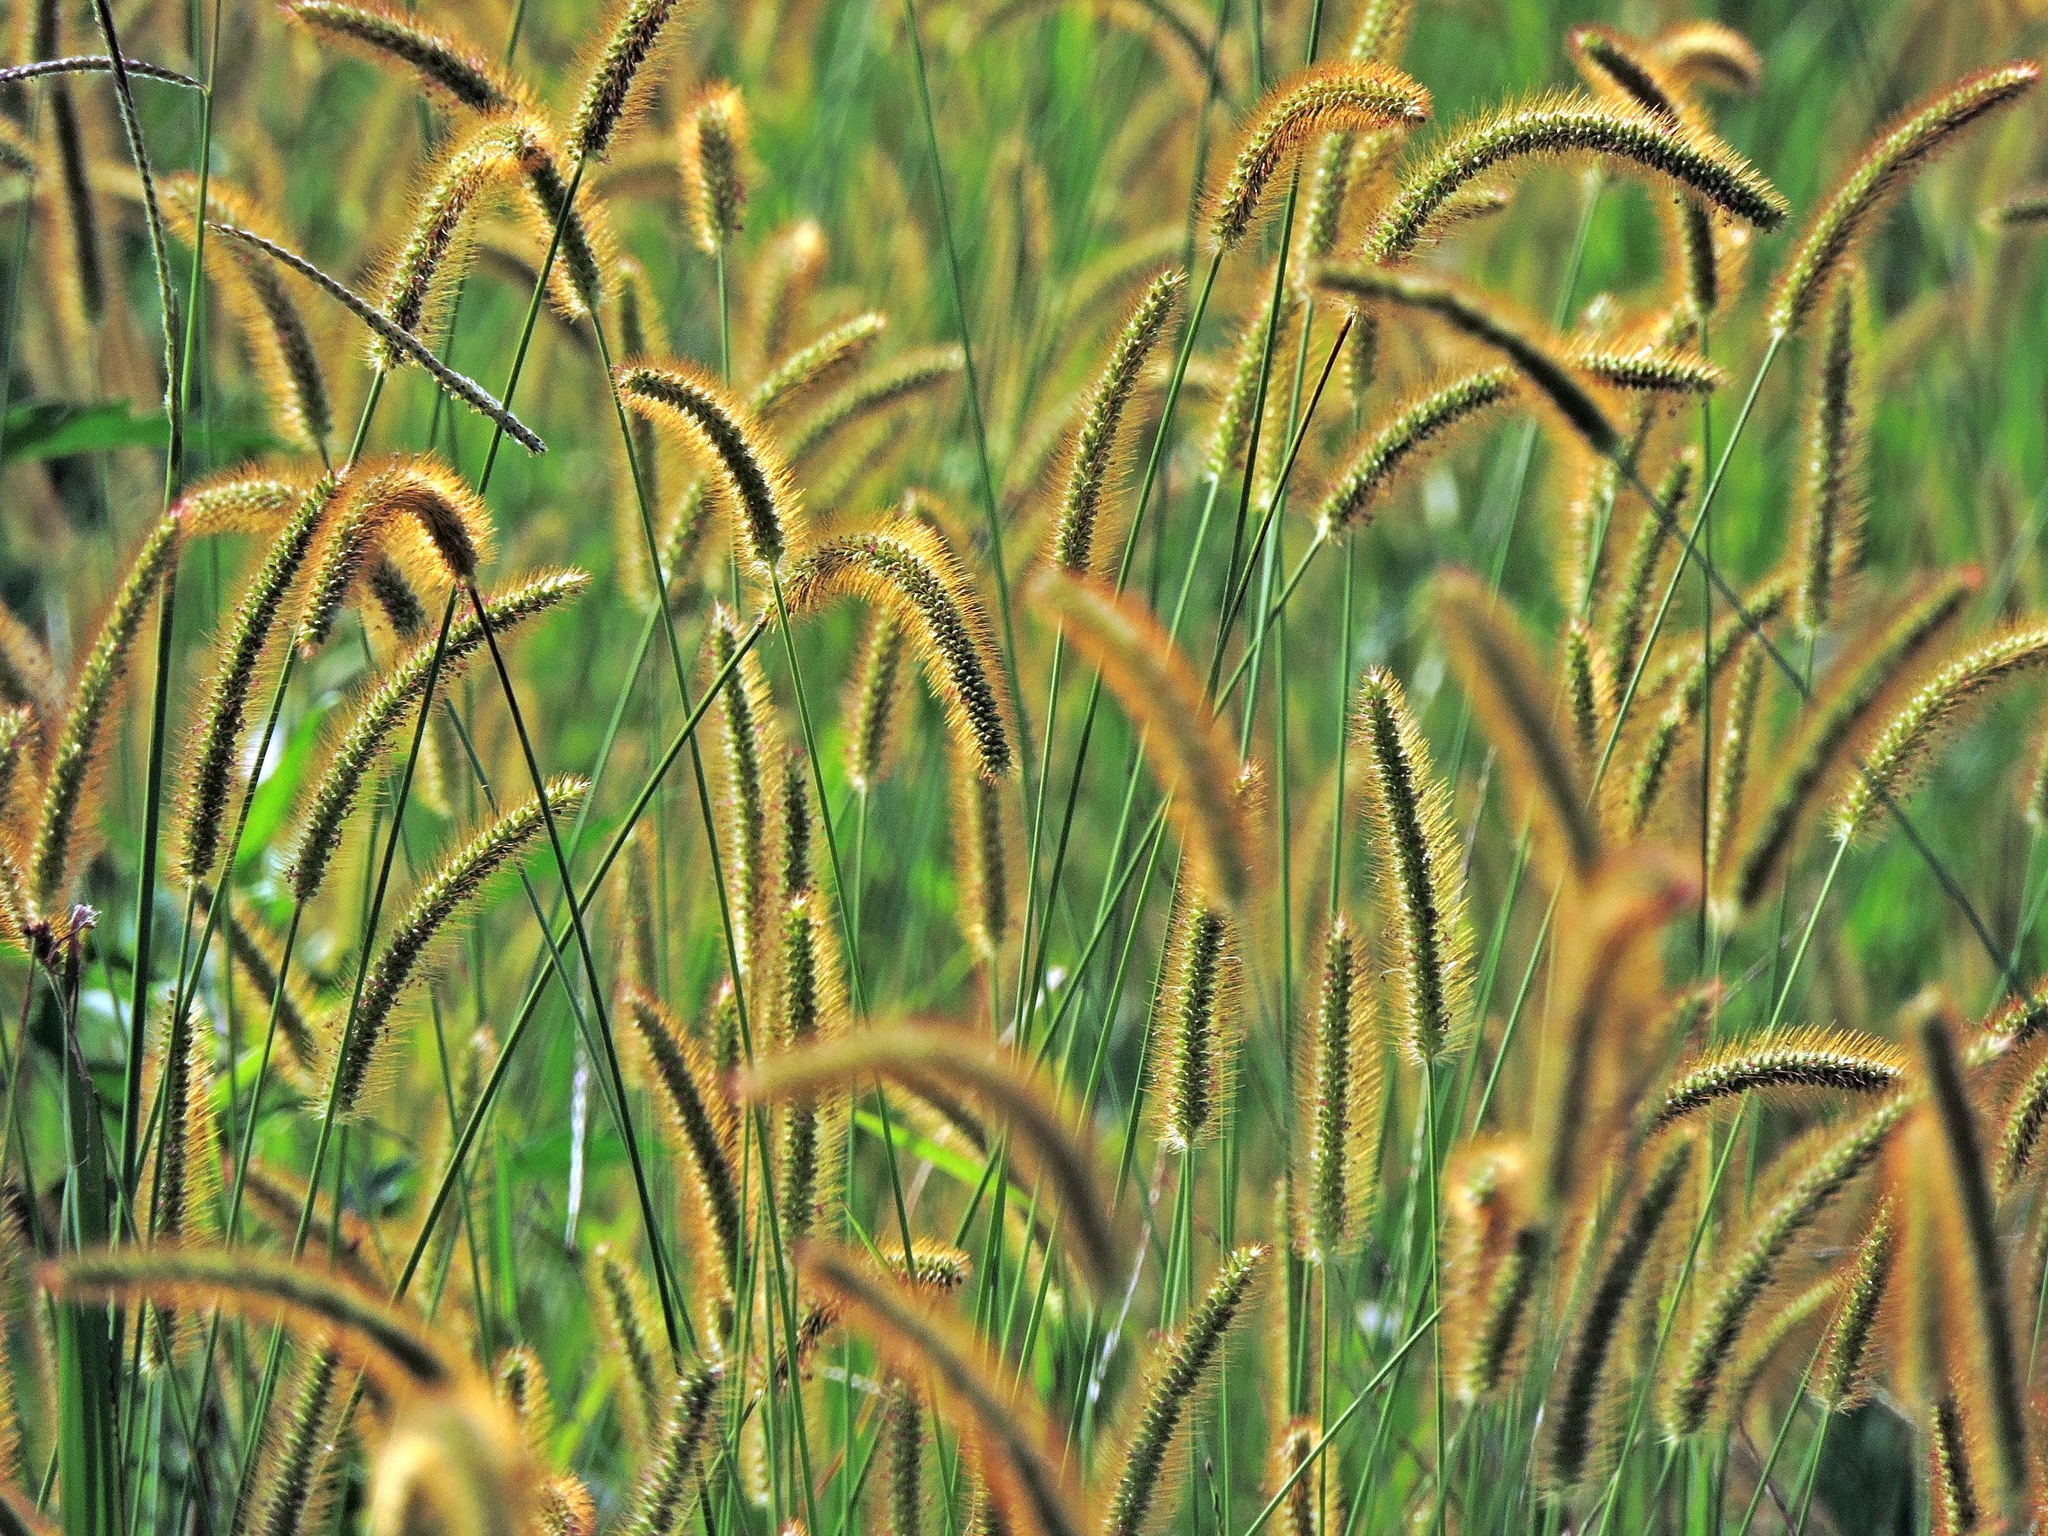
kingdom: Plantae
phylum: Tracheophyta
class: Liliopsida
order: Poales
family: Poaceae
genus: Cenchrus
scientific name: Cenchrus setosus
